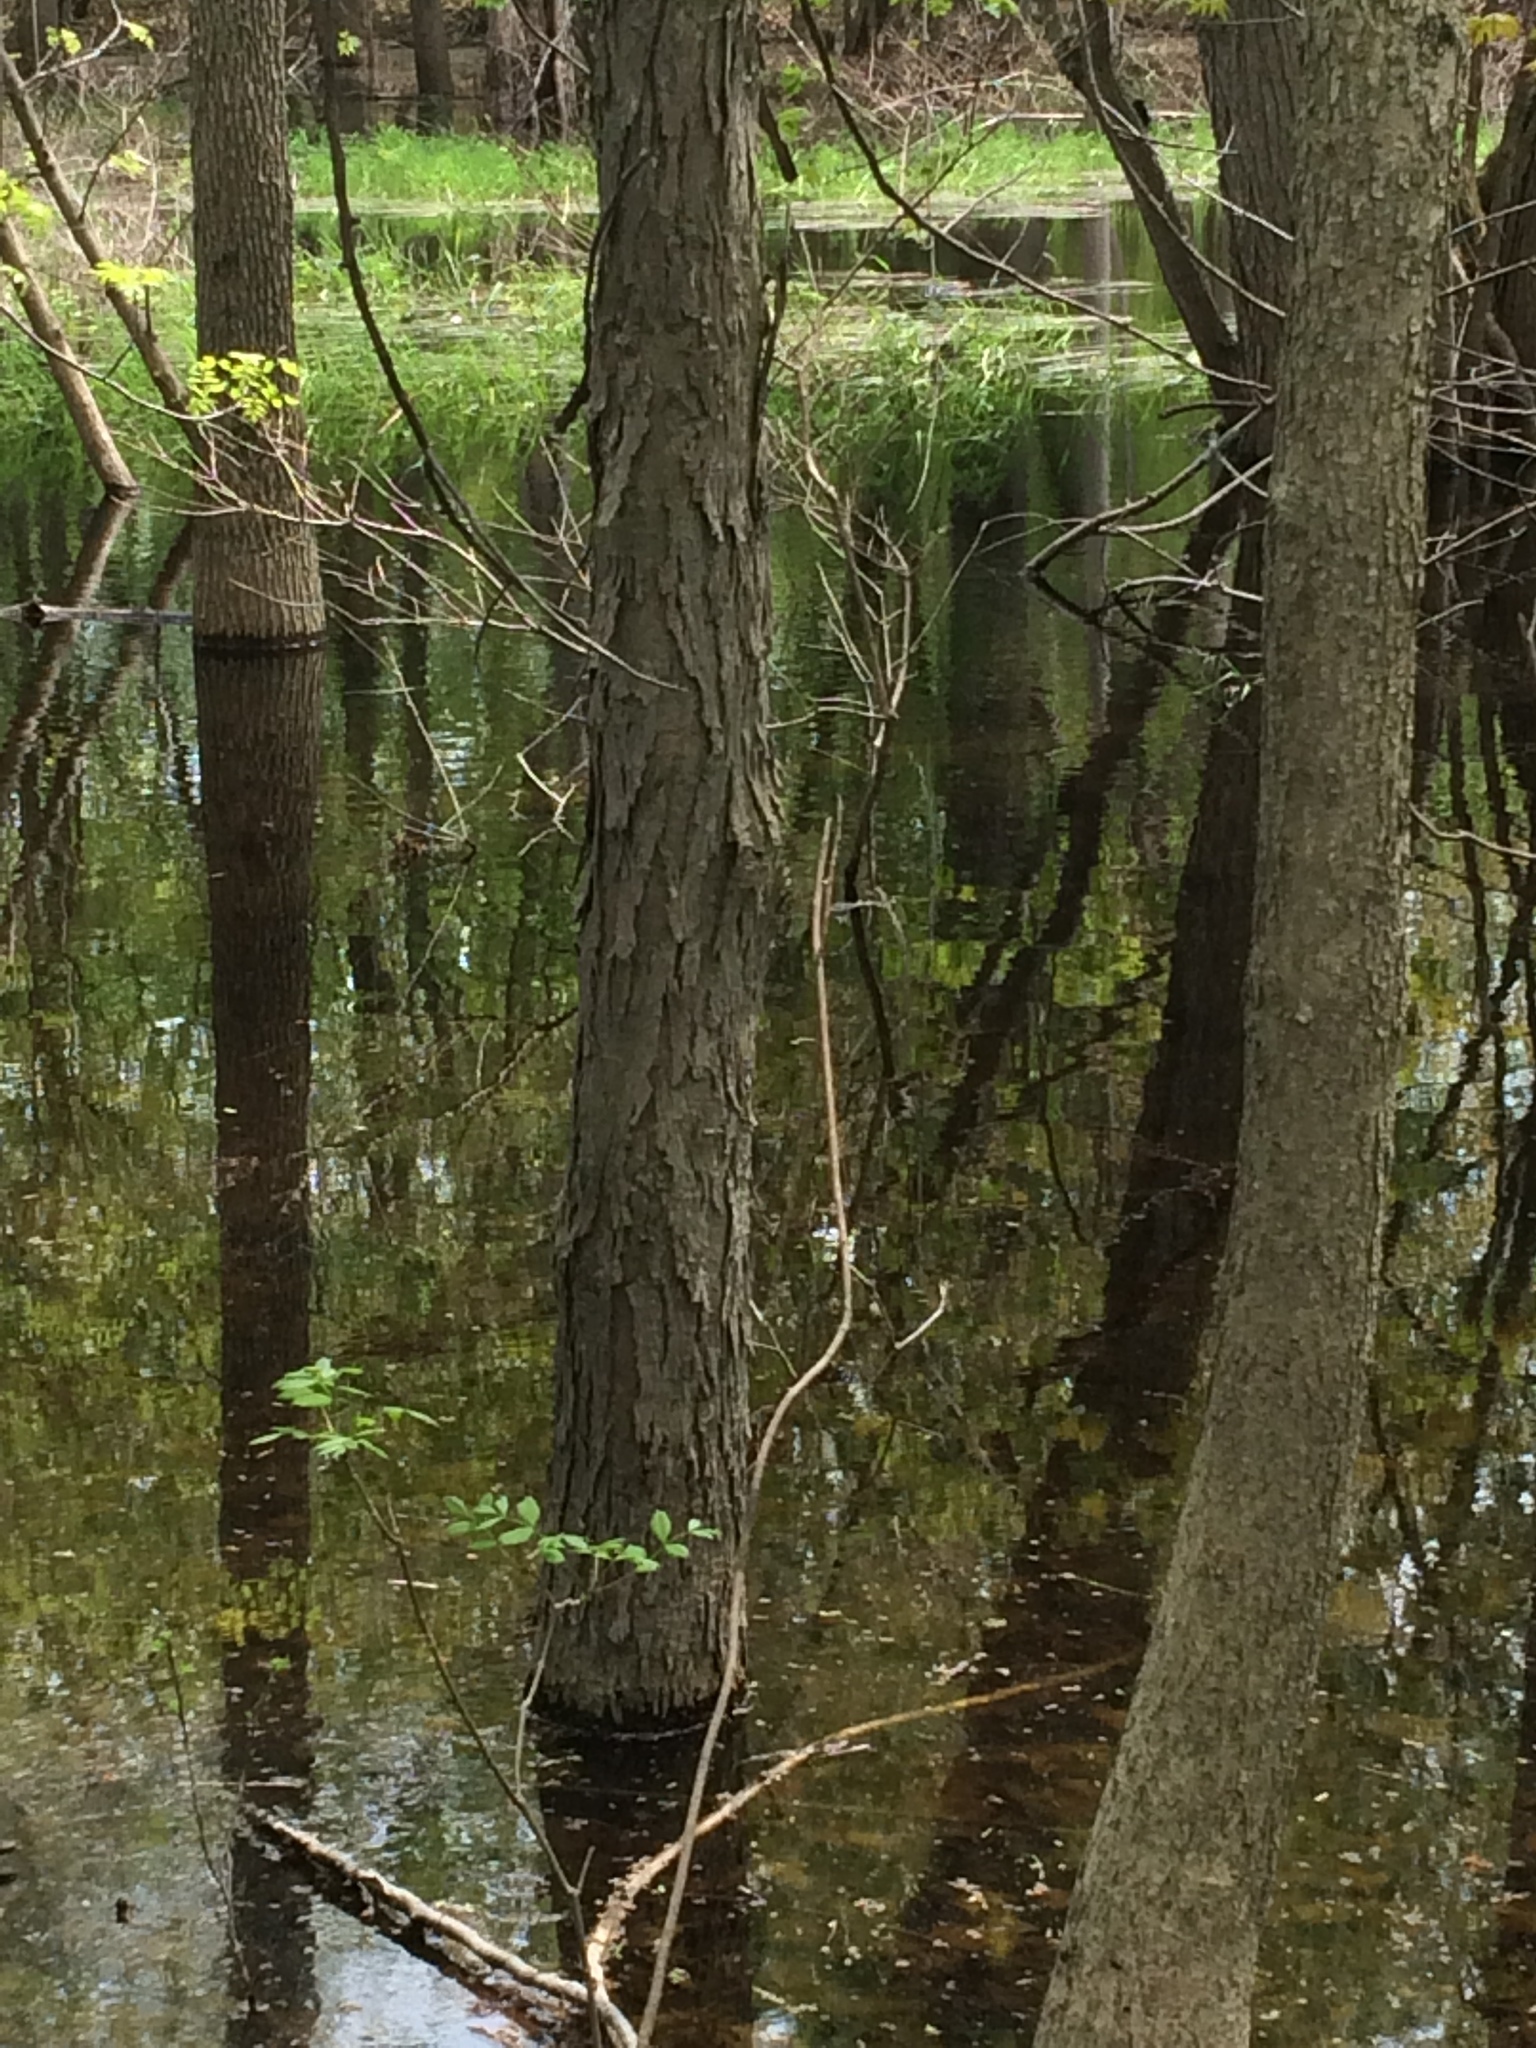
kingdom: Plantae
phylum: Tracheophyta
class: Magnoliopsida
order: Fagales
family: Juglandaceae
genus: Carya
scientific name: Carya ovata
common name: Shagbark hickory
